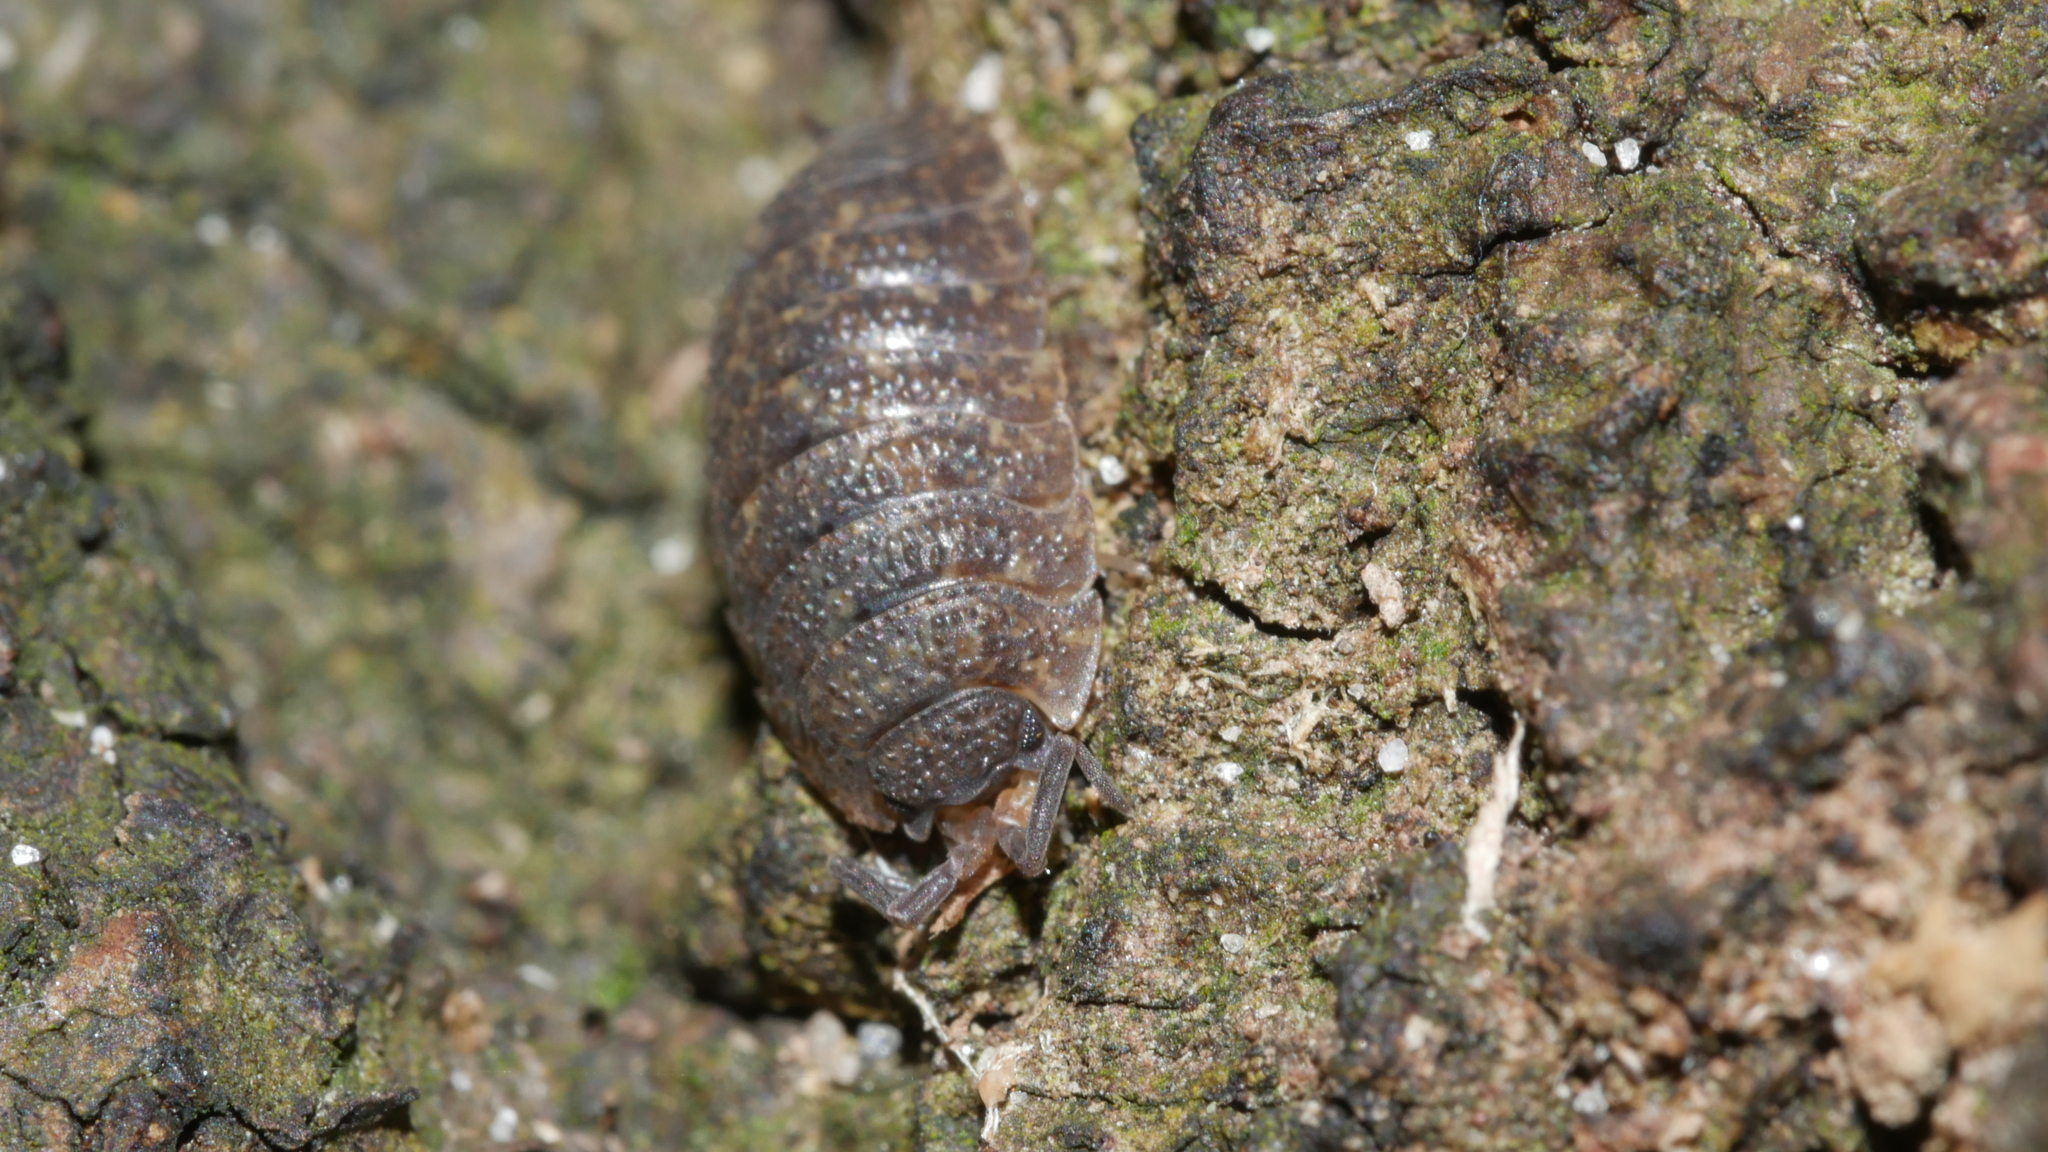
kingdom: Animalia
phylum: Arthropoda
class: Malacostraca
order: Isopoda
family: Porcellionidae
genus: Porcellio
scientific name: Porcellio scaber
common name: Common rough woodlouse
